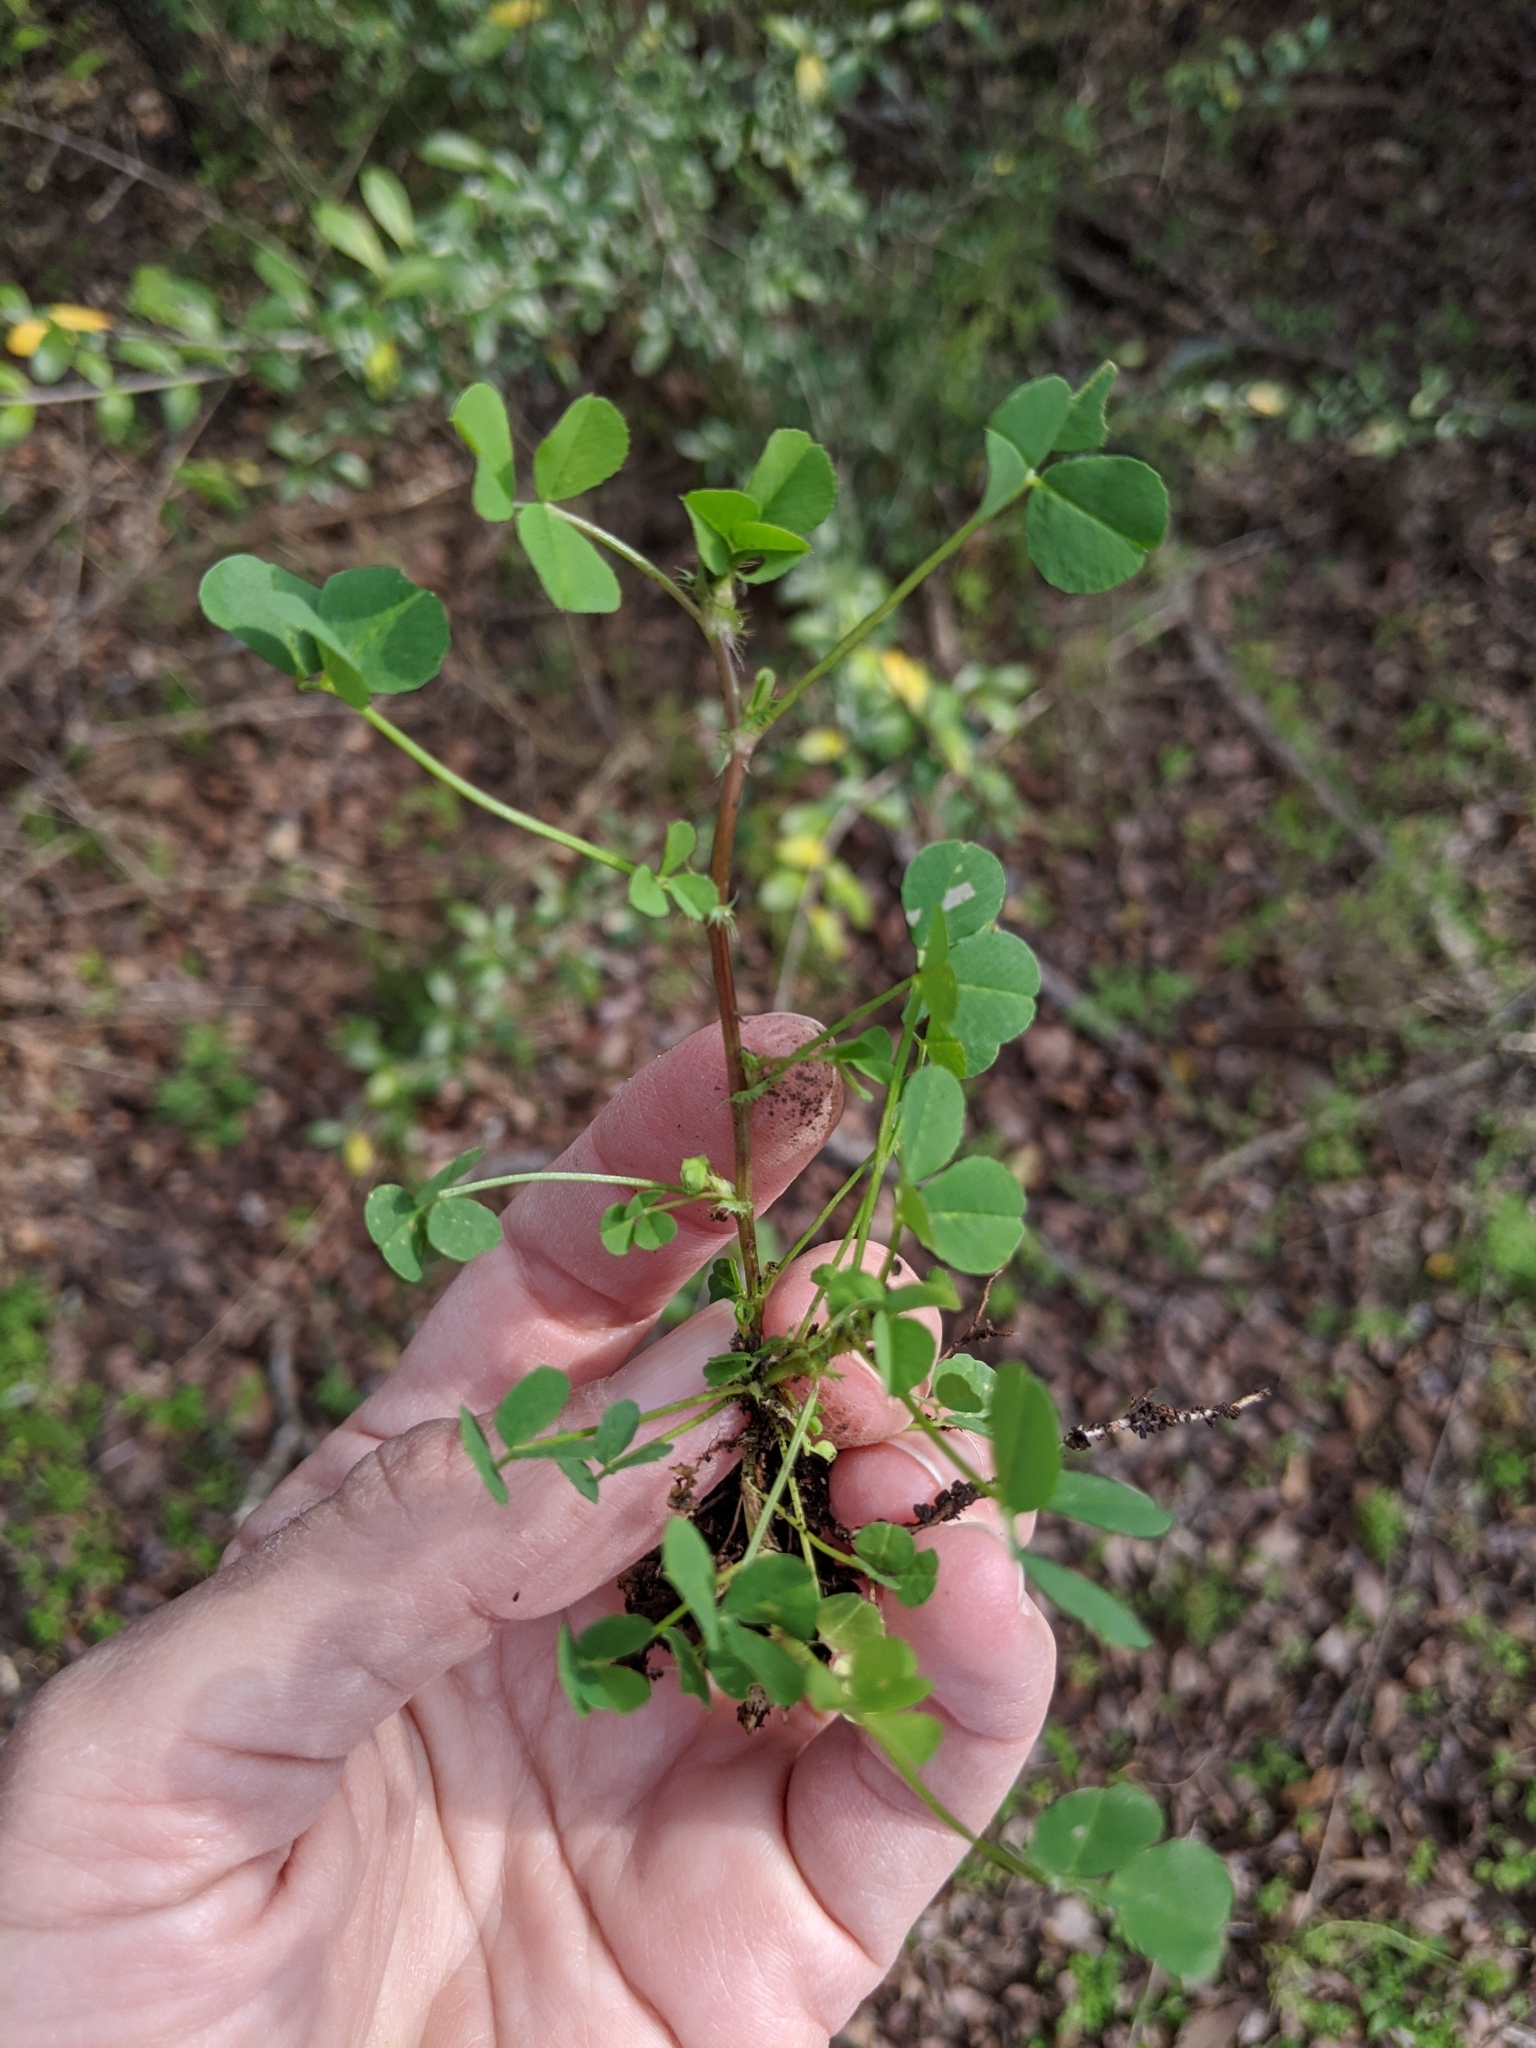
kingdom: Plantae
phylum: Tracheophyta
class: Magnoliopsida
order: Fabales
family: Fabaceae
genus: Medicago
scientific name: Medicago polymorpha
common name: Burclover
